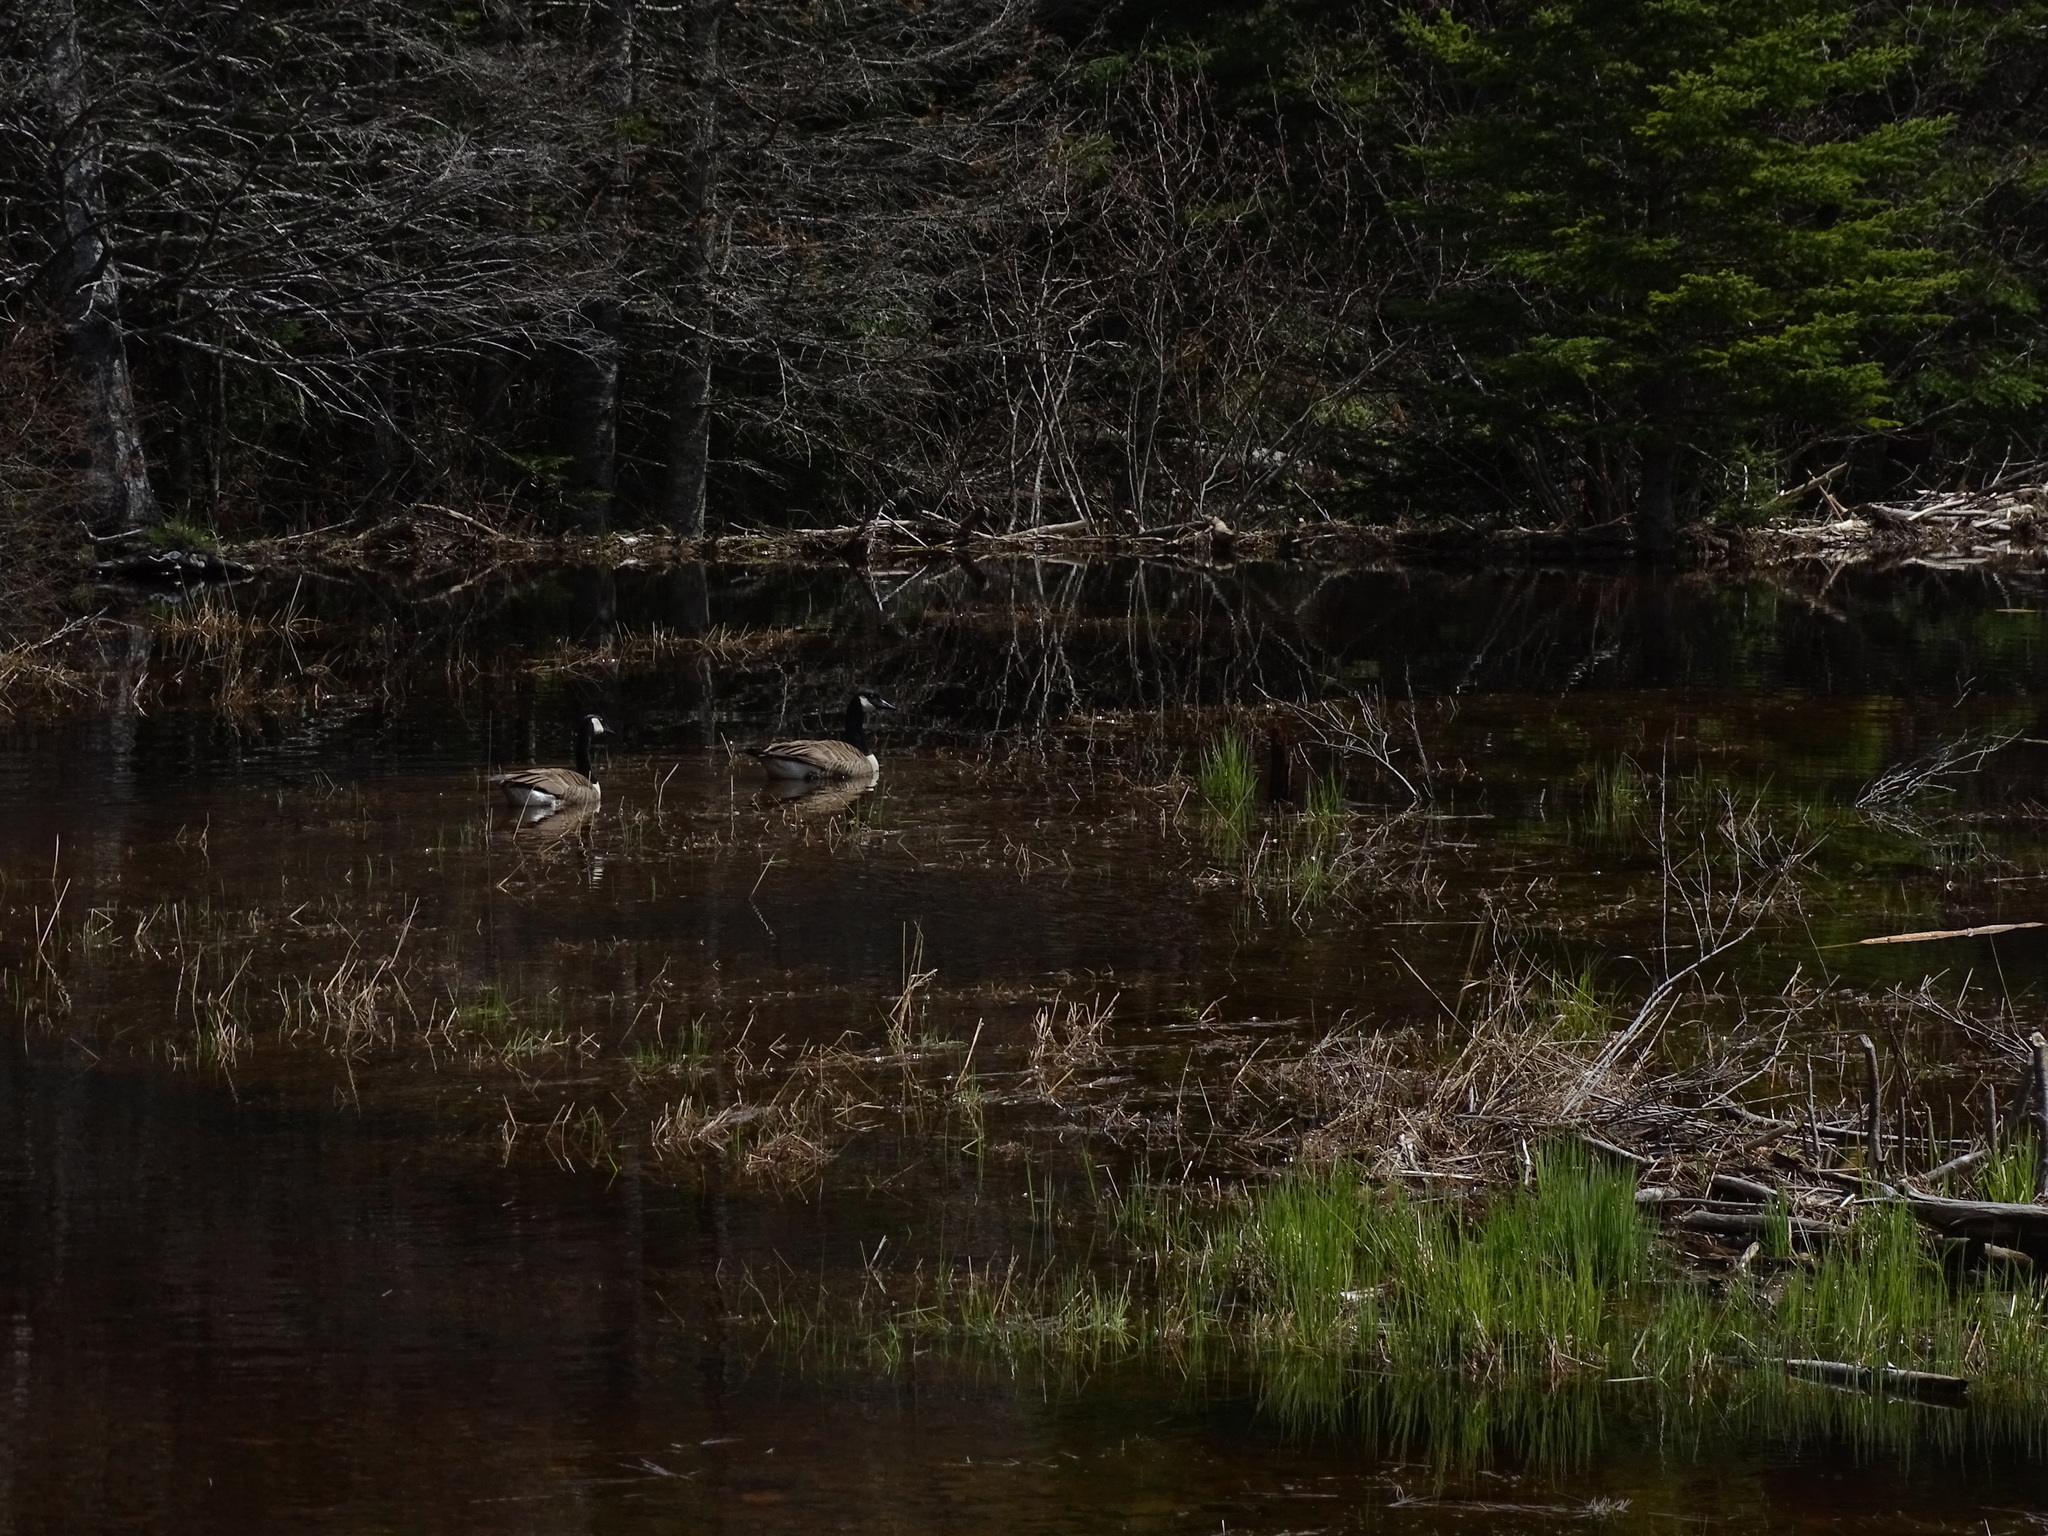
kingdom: Animalia
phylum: Chordata
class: Aves
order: Anseriformes
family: Anatidae
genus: Branta
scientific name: Branta canadensis
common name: Canada goose
